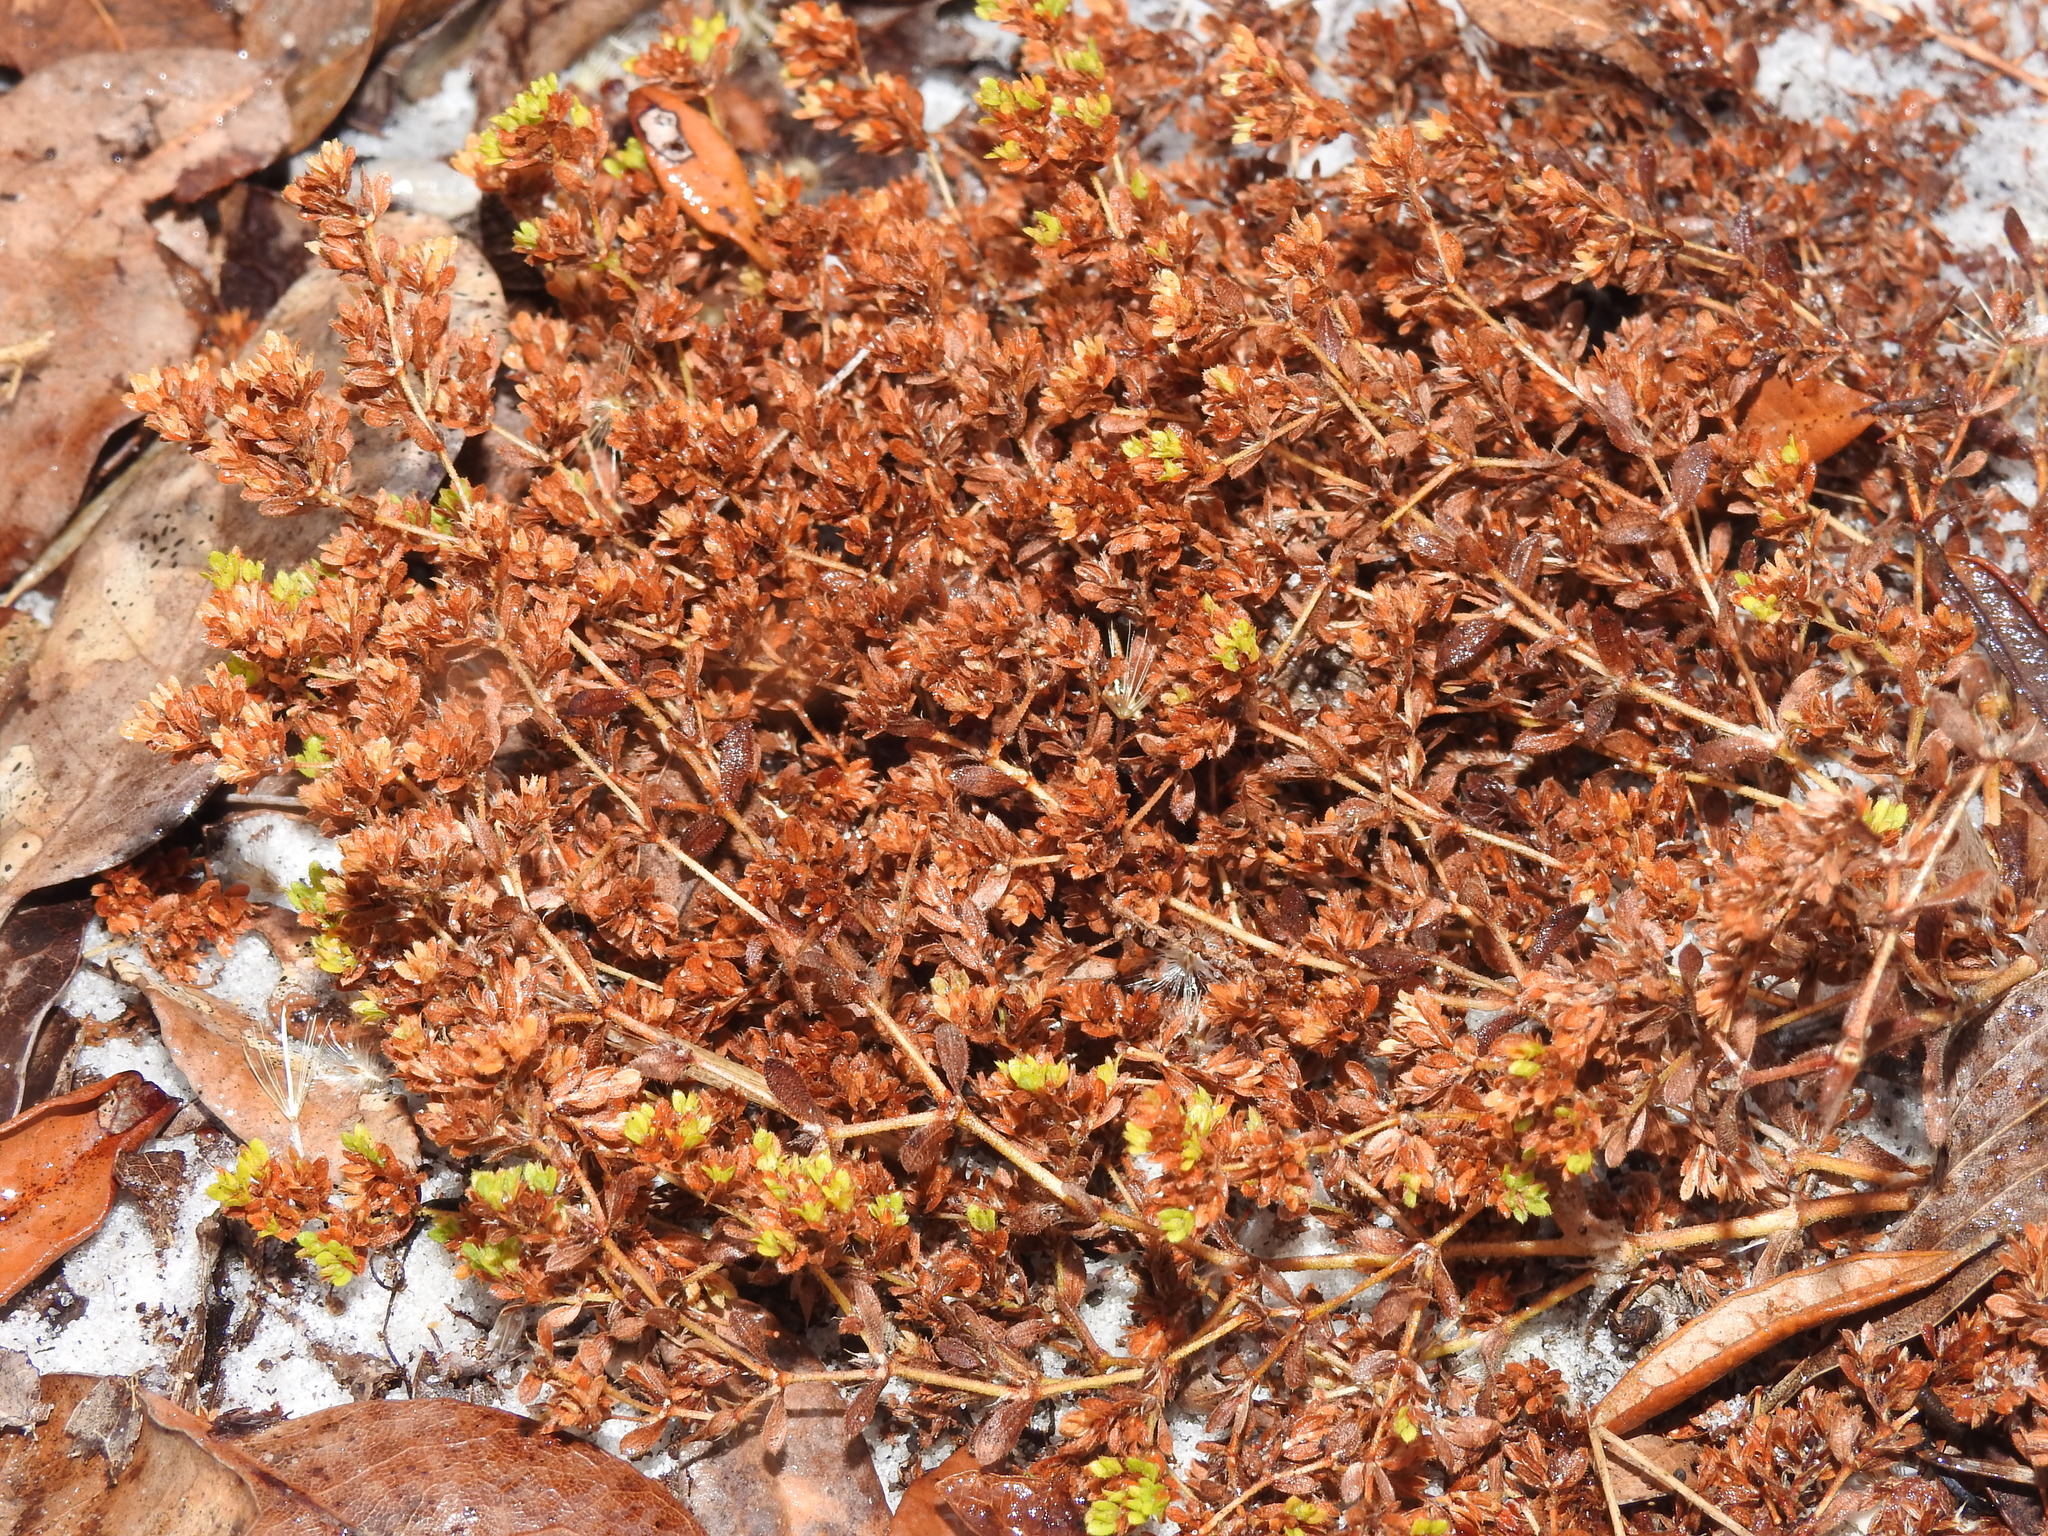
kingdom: Plantae
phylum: Tracheophyta
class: Magnoliopsida
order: Caryophyllales
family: Caryophyllaceae
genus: Paronychia
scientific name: Paronychia herniarioides
